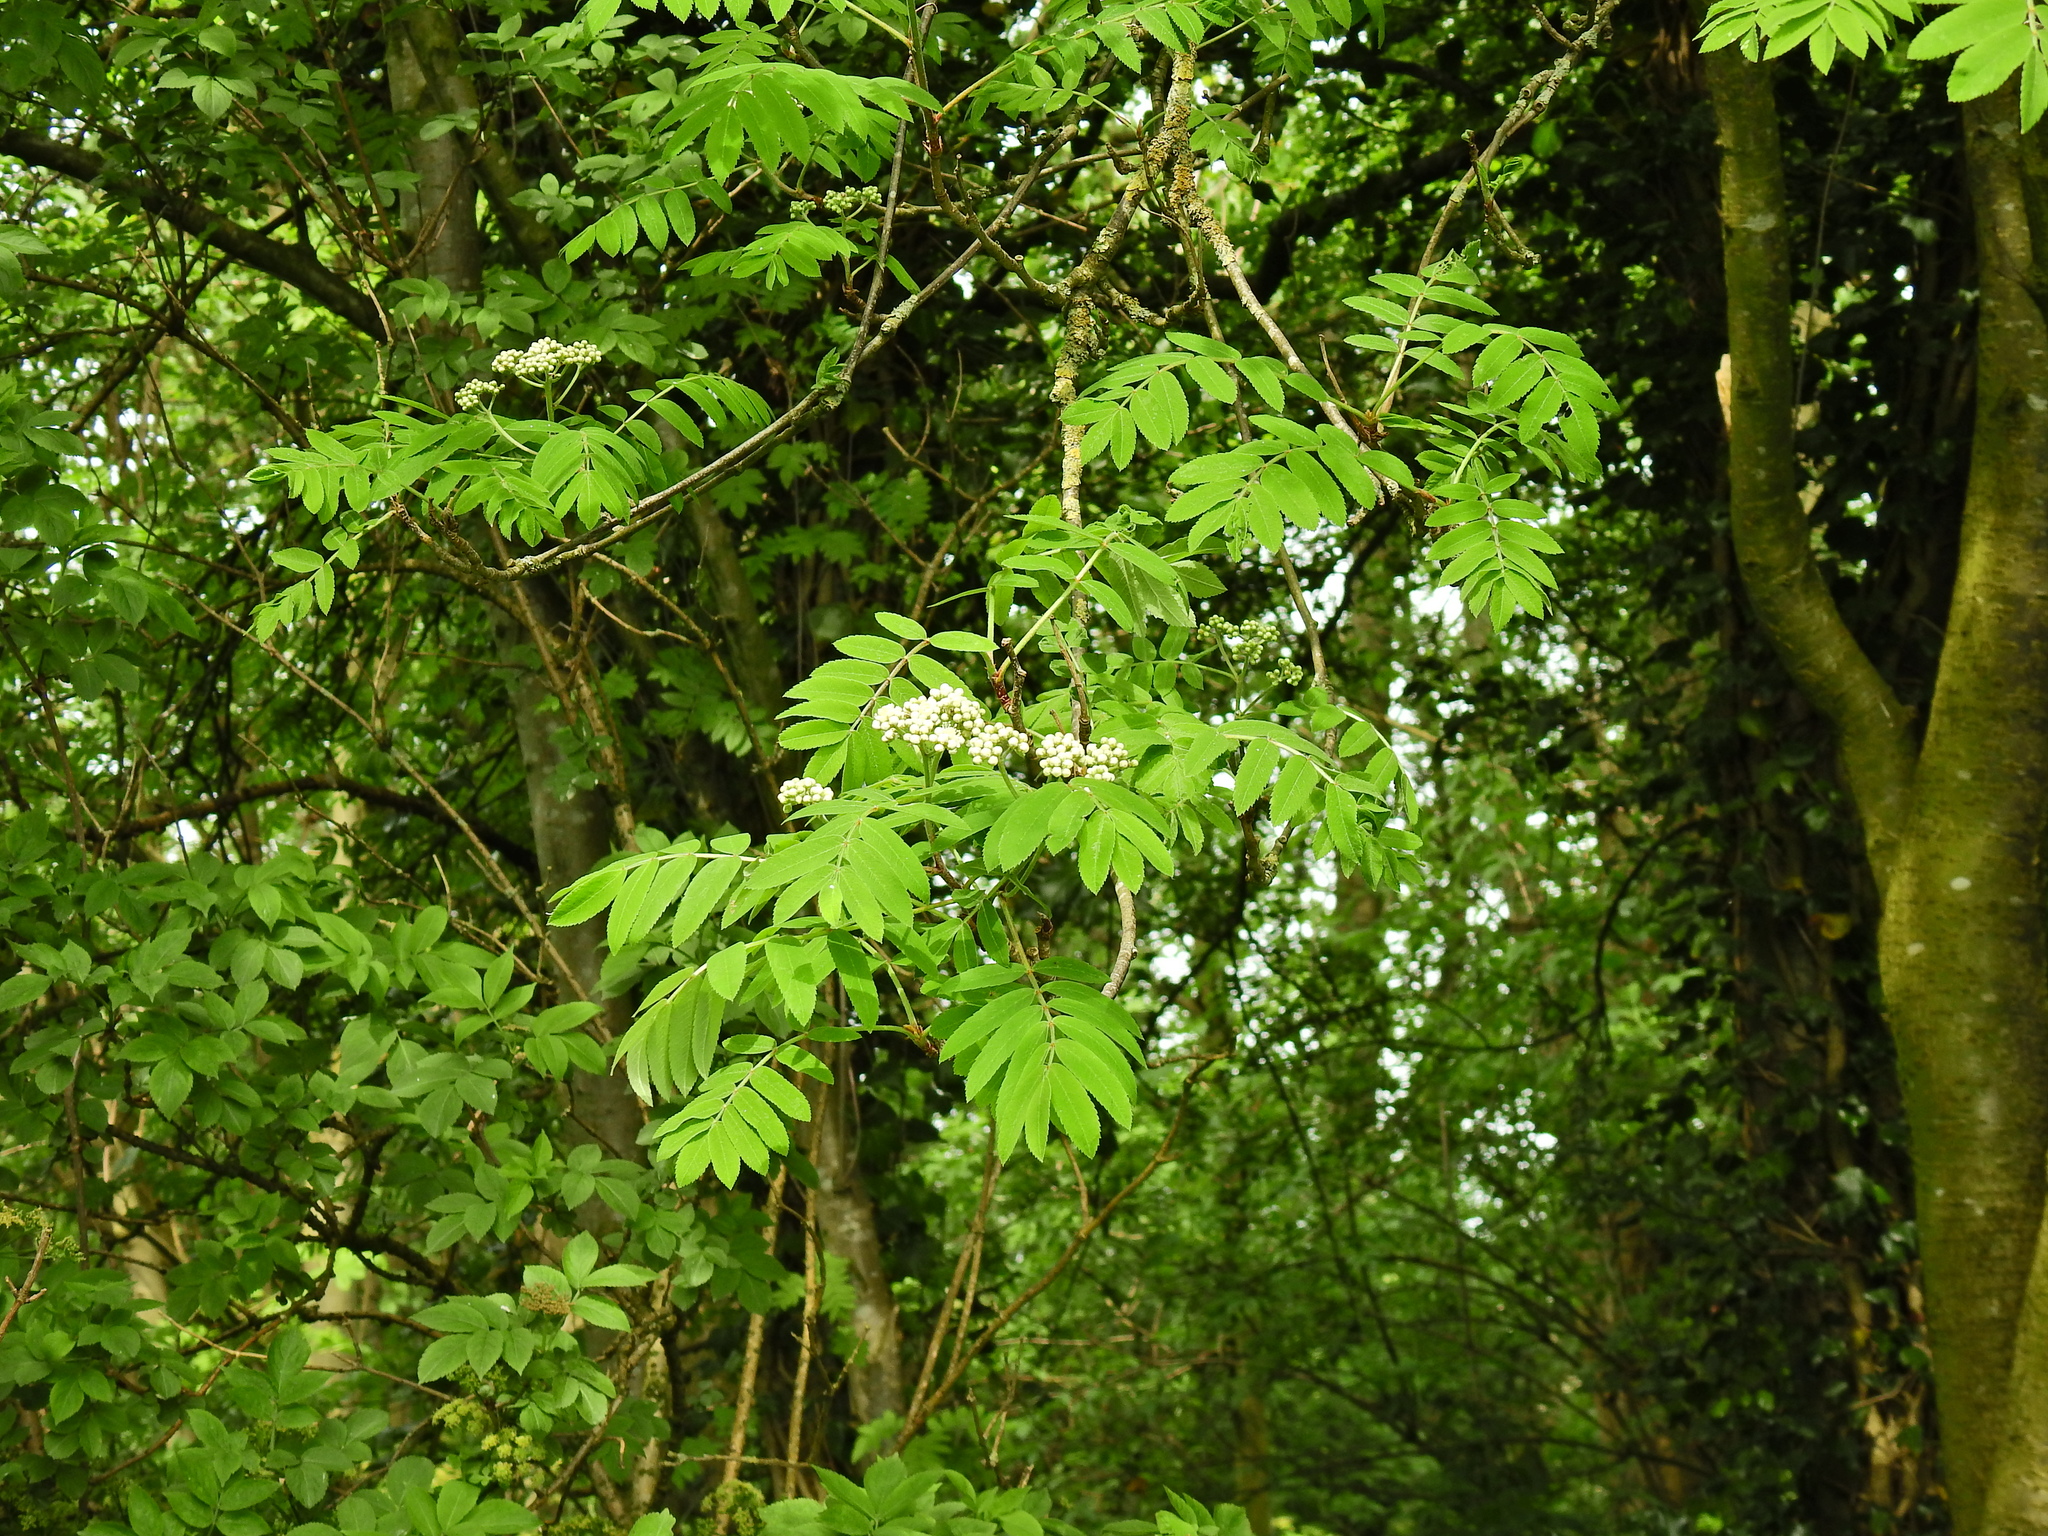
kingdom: Plantae
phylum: Tracheophyta
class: Magnoliopsida
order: Rosales
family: Rosaceae
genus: Sorbus
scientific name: Sorbus aucuparia
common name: Rowan
